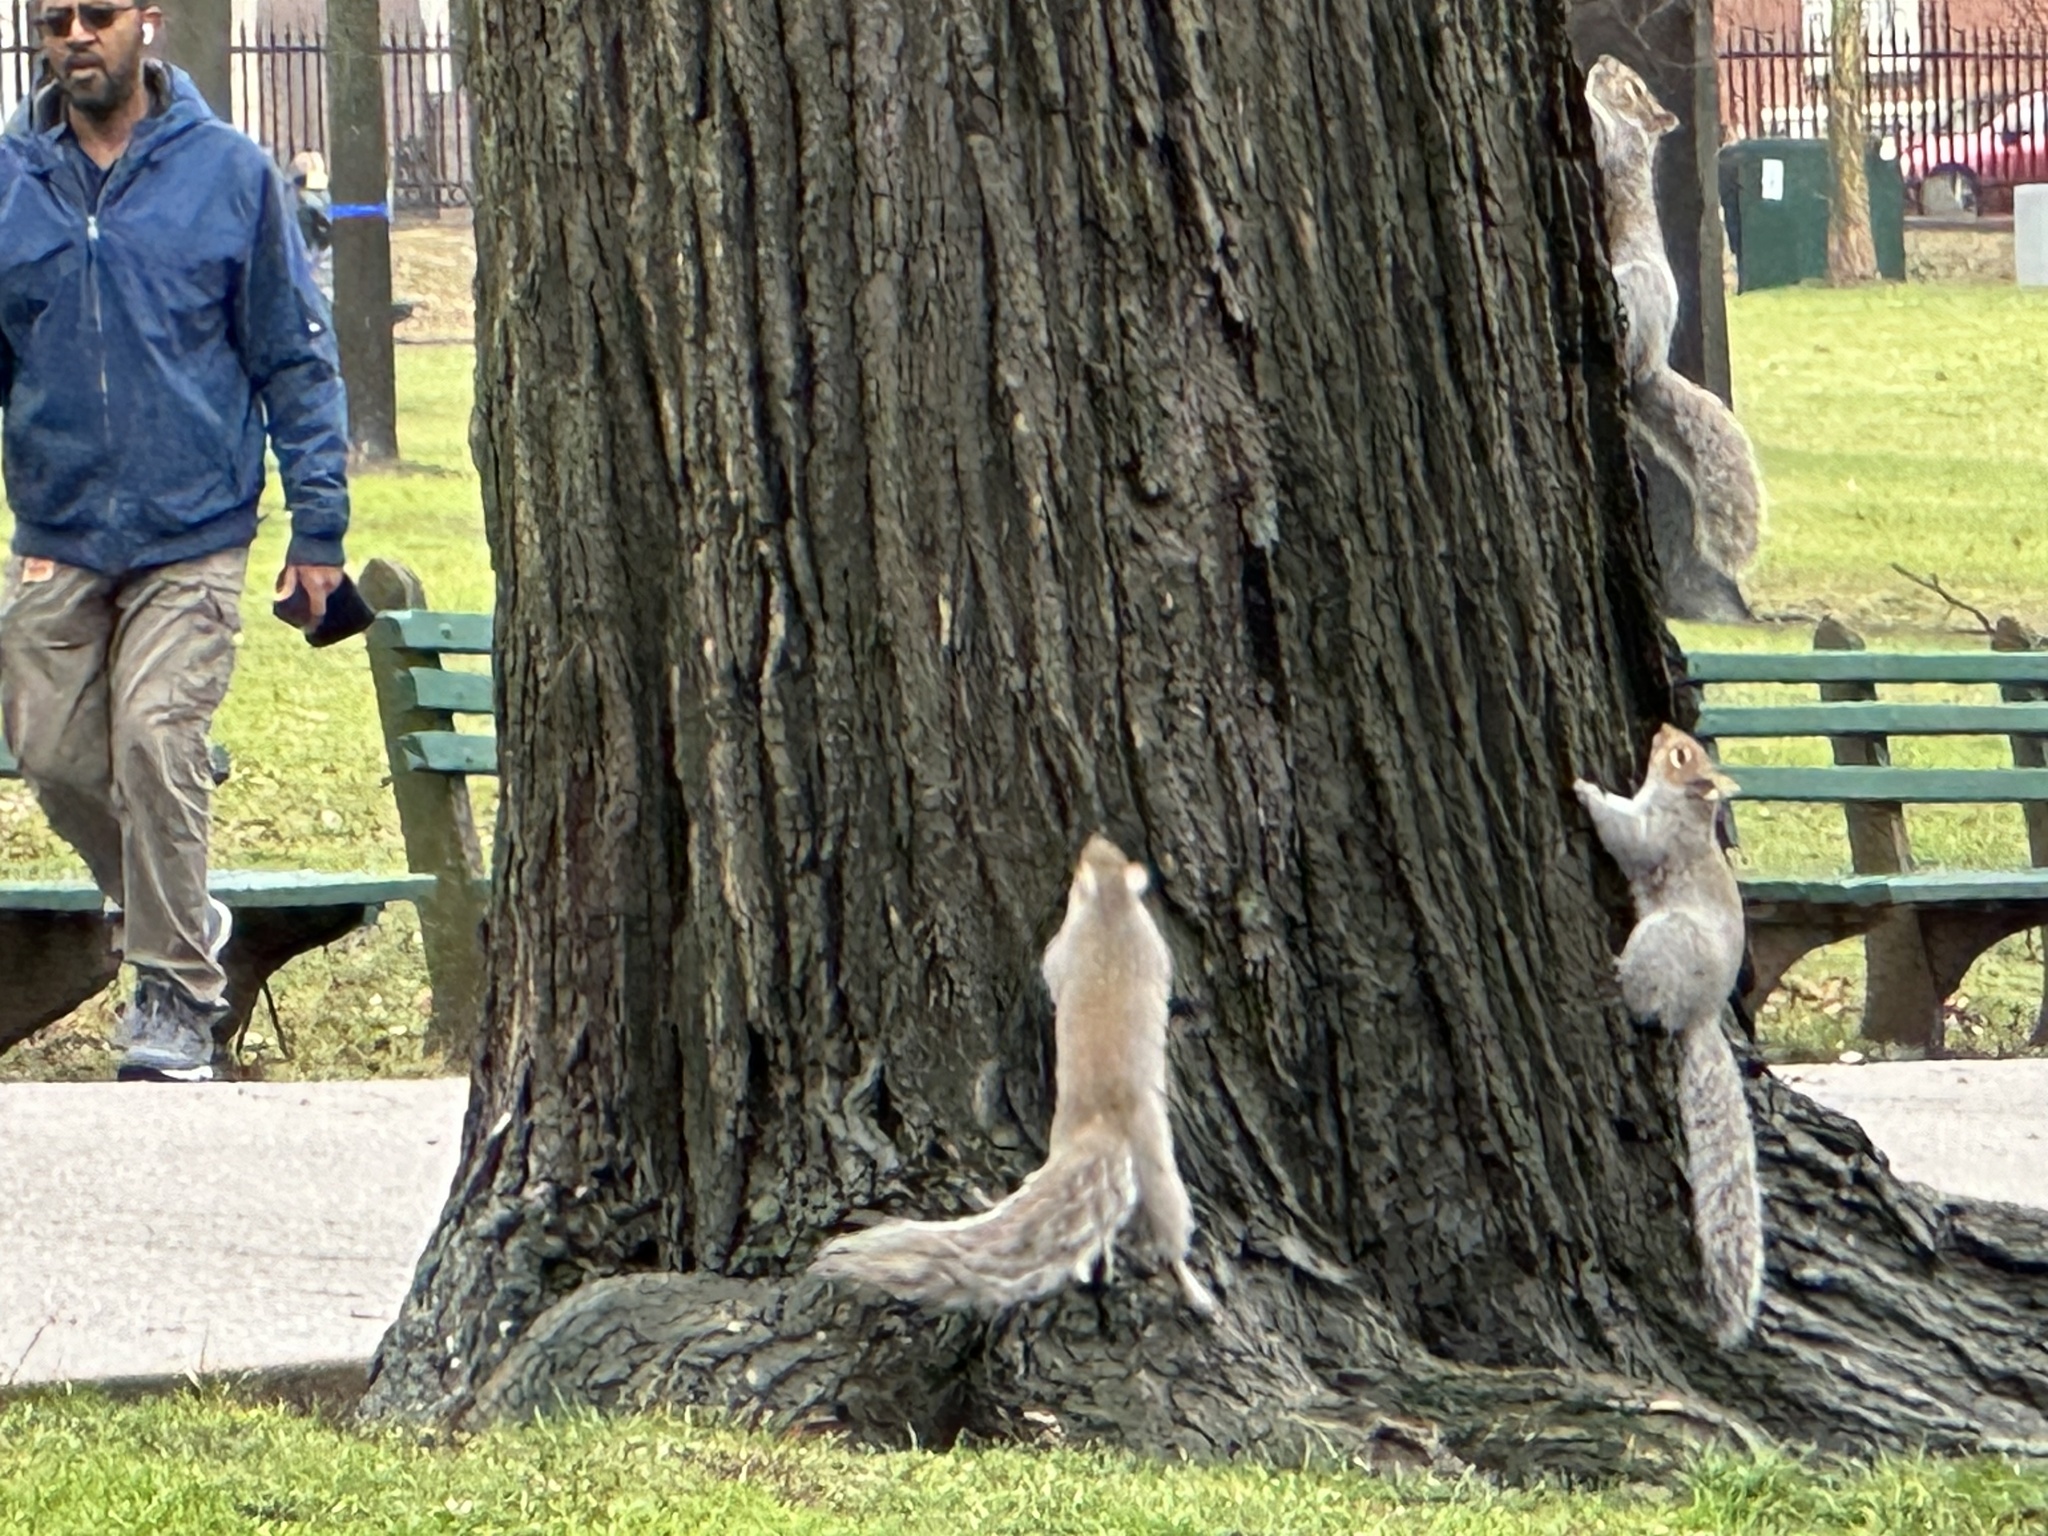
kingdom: Animalia
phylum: Chordata
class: Mammalia
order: Rodentia
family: Sciuridae
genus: Sciurus
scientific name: Sciurus carolinensis
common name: Eastern gray squirrel
